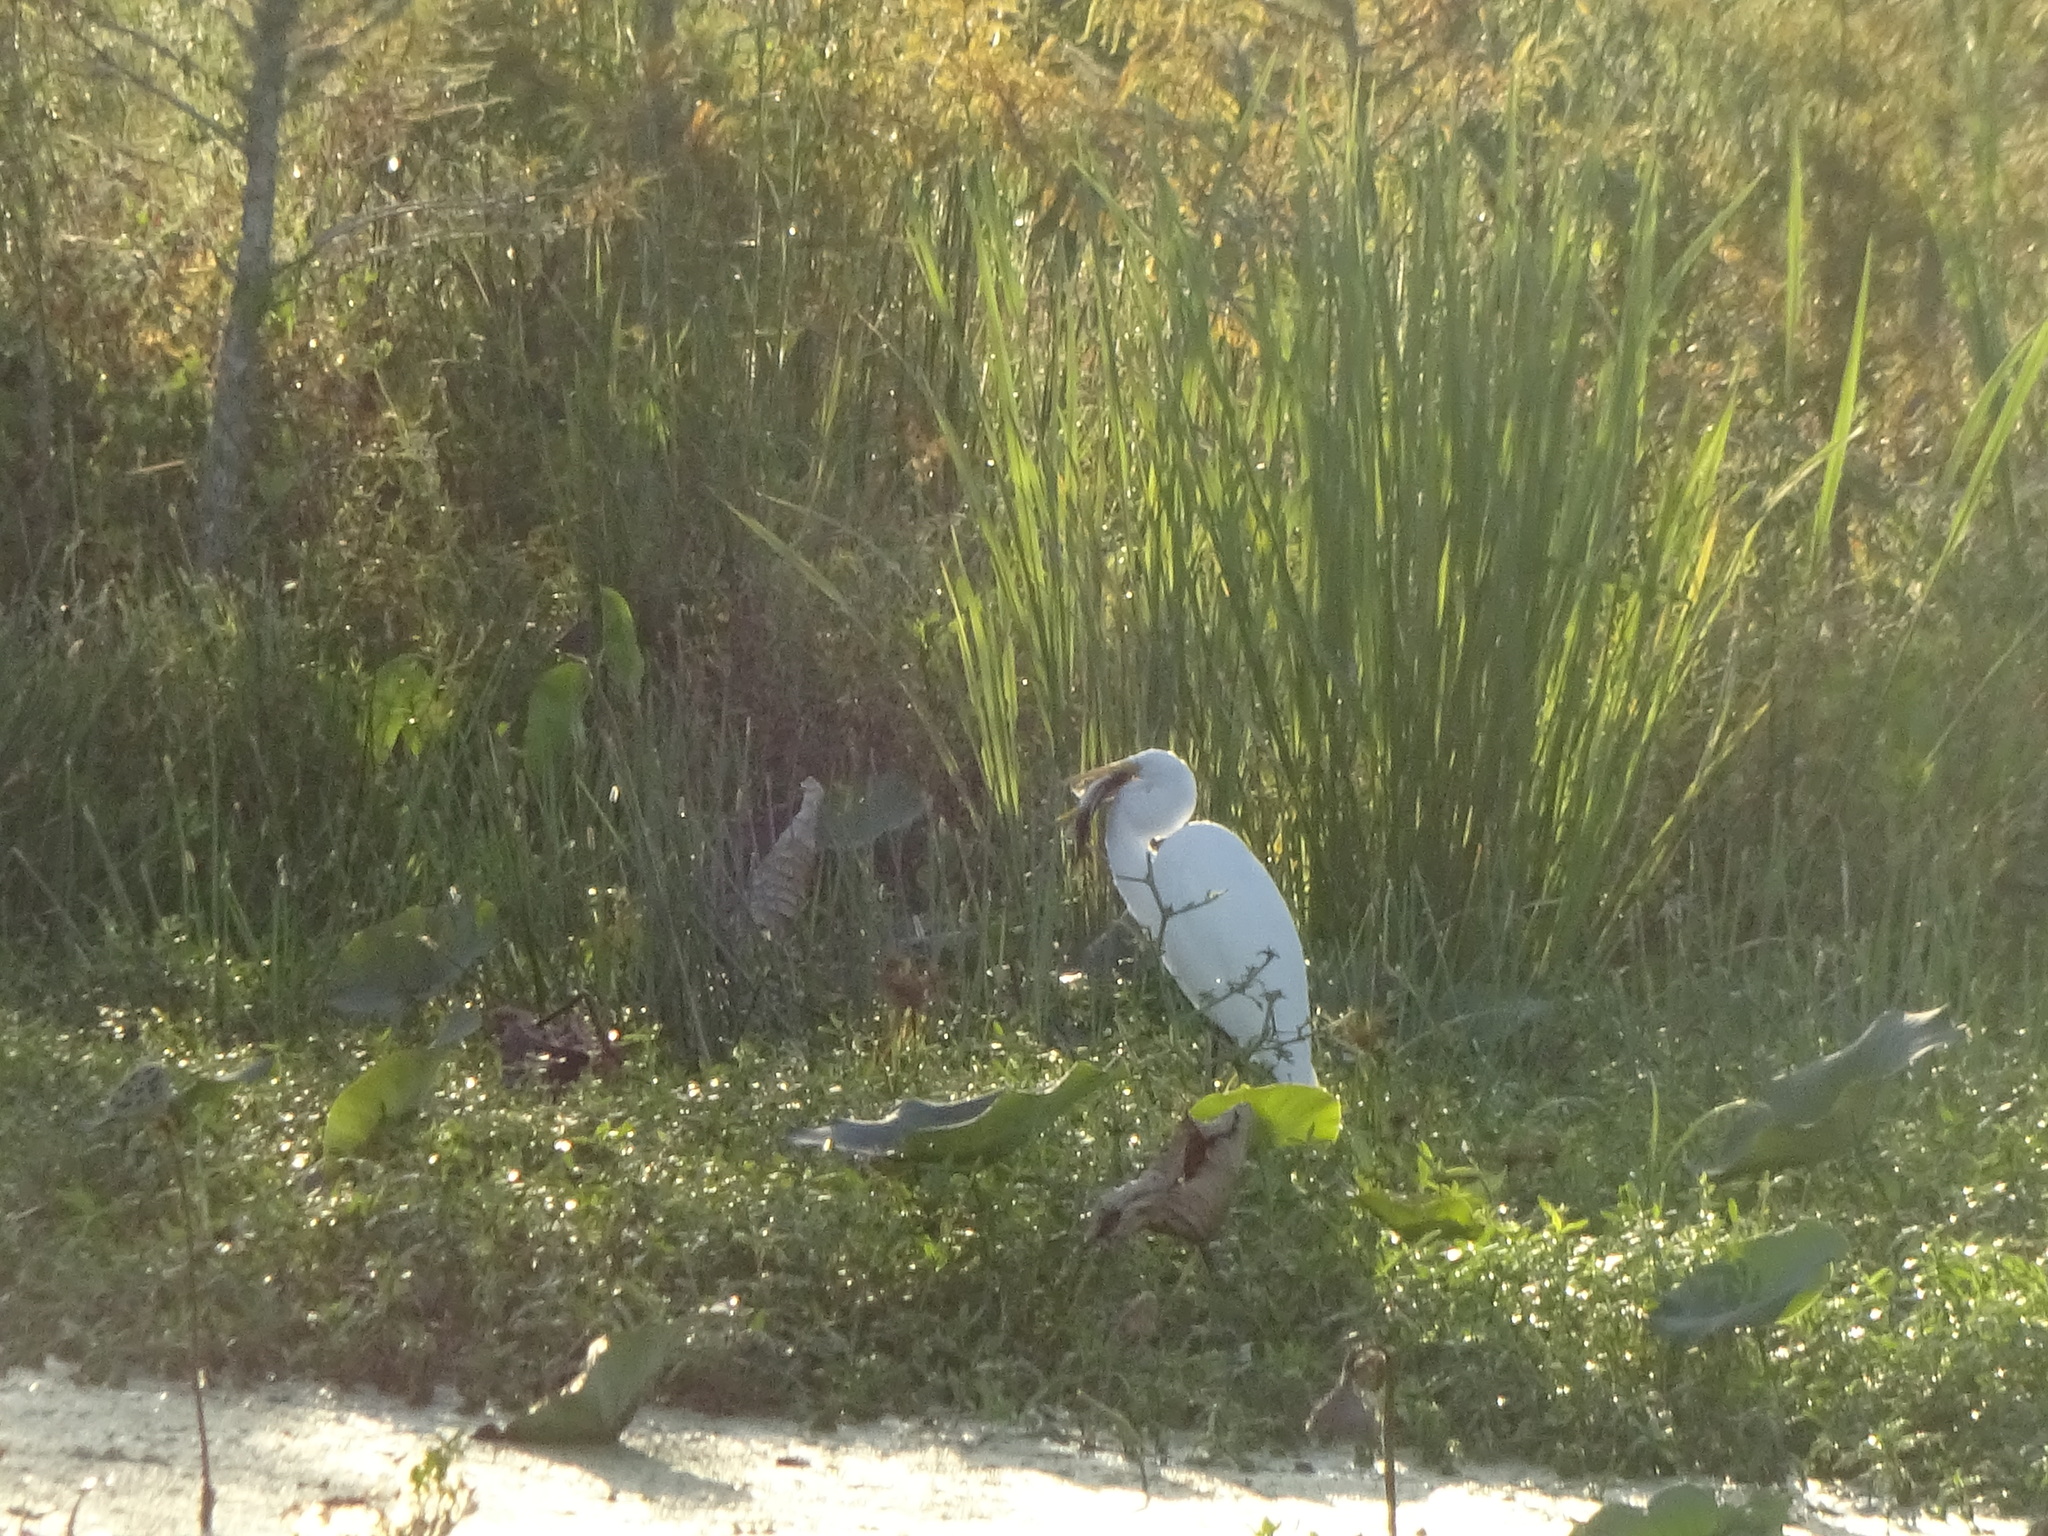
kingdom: Animalia
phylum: Chordata
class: Aves
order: Pelecaniformes
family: Ardeidae
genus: Ardea
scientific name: Ardea alba
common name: Great egret
